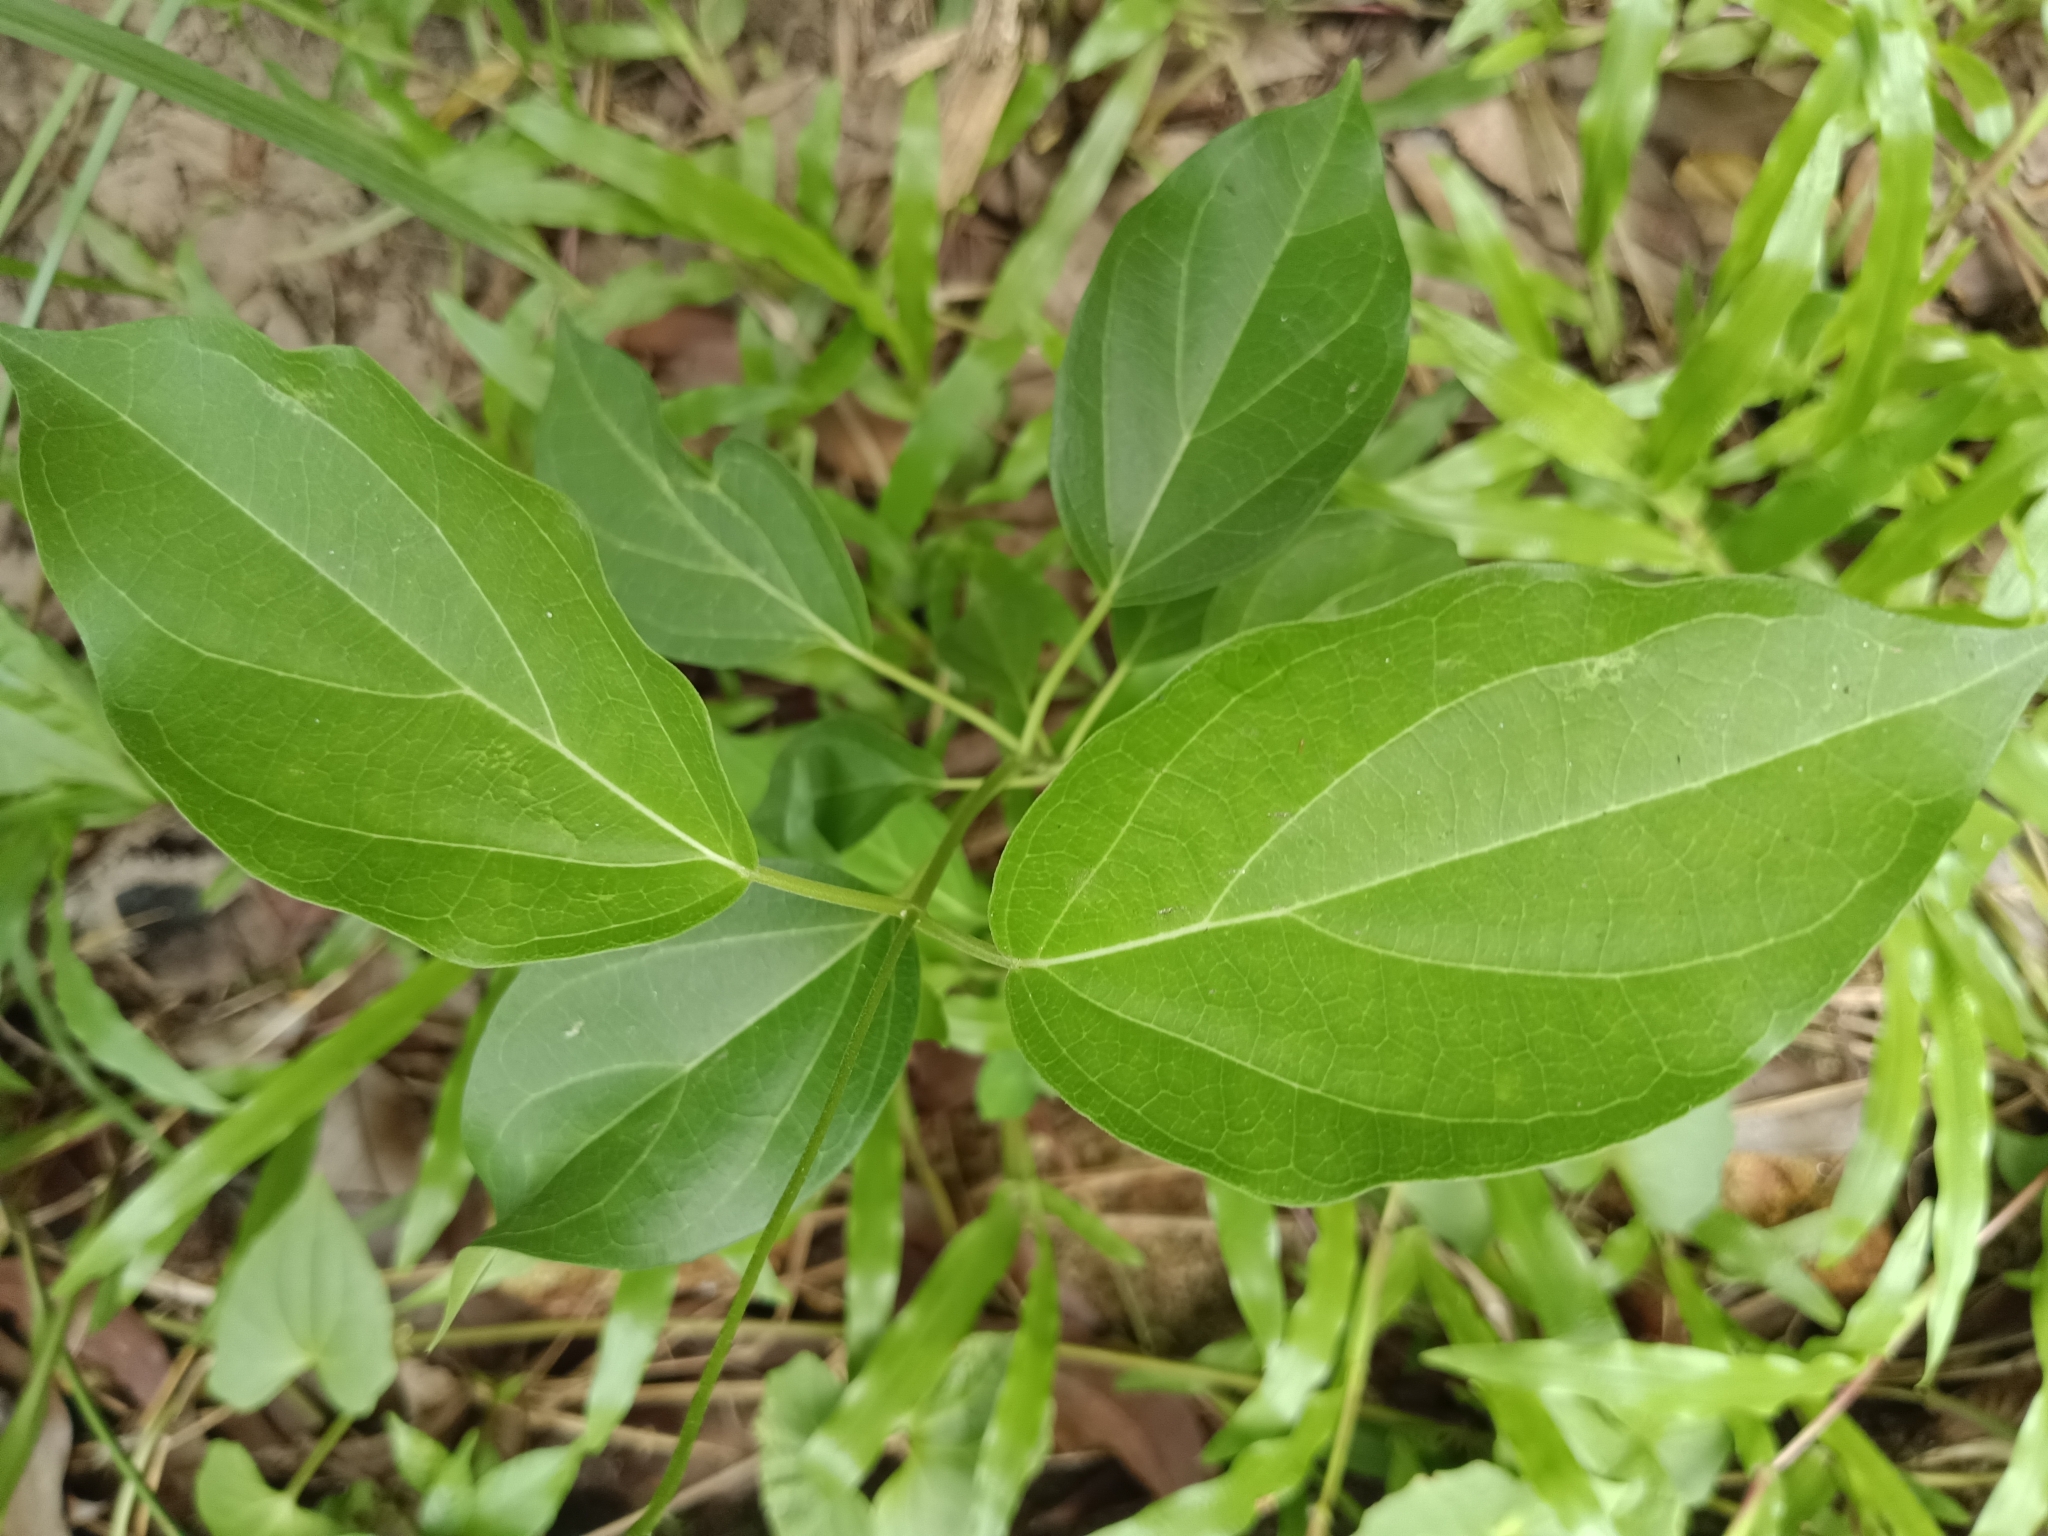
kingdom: Plantae
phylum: Tracheophyta
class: Magnoliopsida
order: Gentianales
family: Apocynaceae
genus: Stephanotis
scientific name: Stephanotis volubilis
